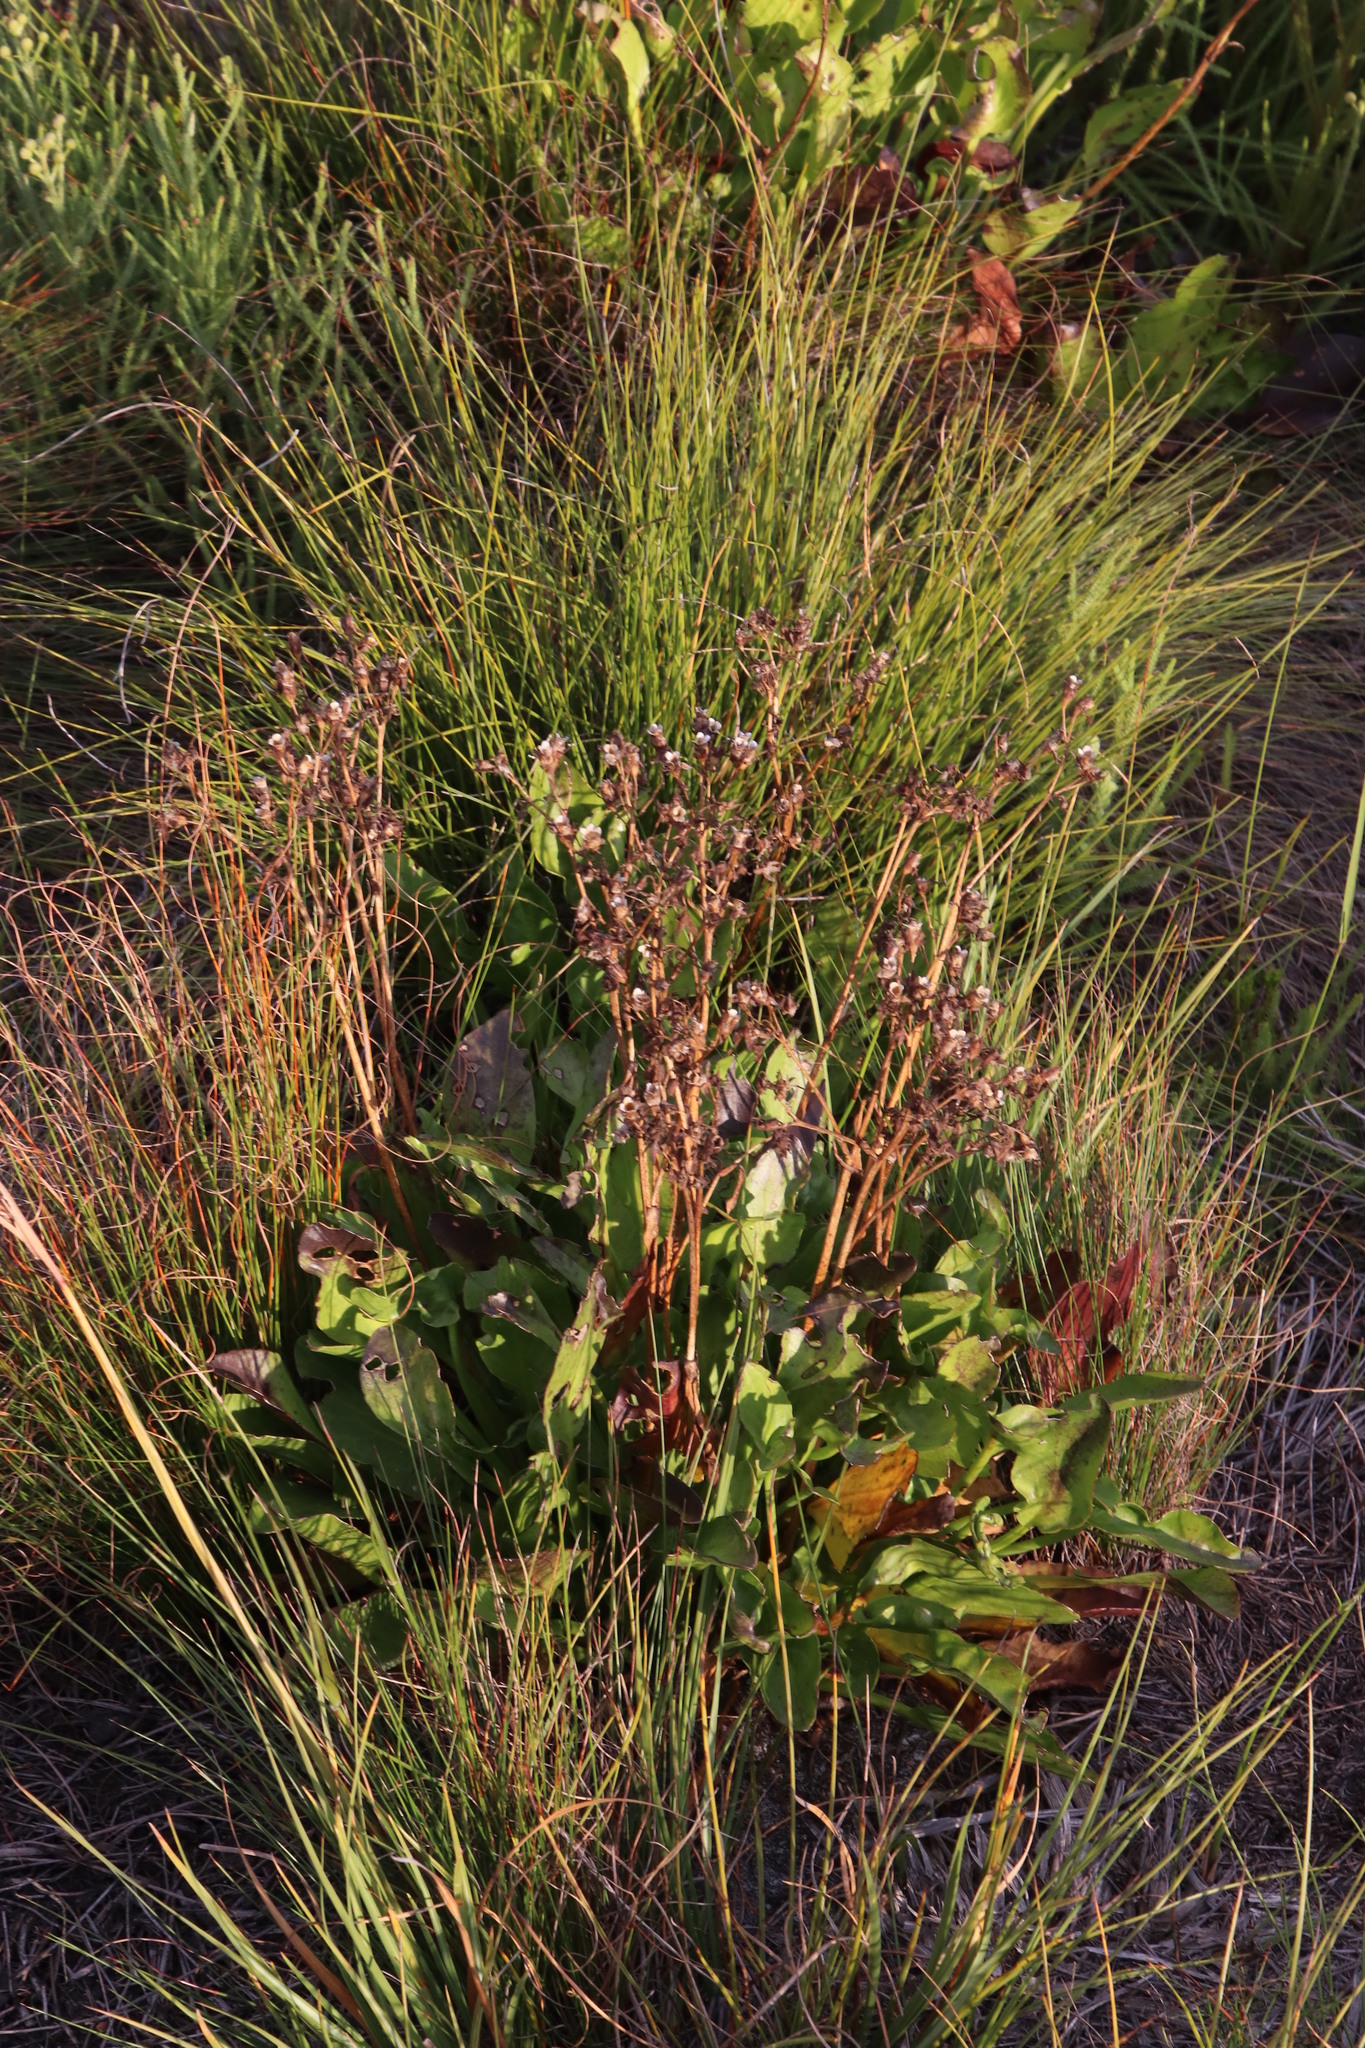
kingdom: Plantae
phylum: Tracheophyta
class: Magnoliopsida
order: Asterales
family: Menyanthaceae
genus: Villarsia
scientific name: Villarsia goldblattiana
